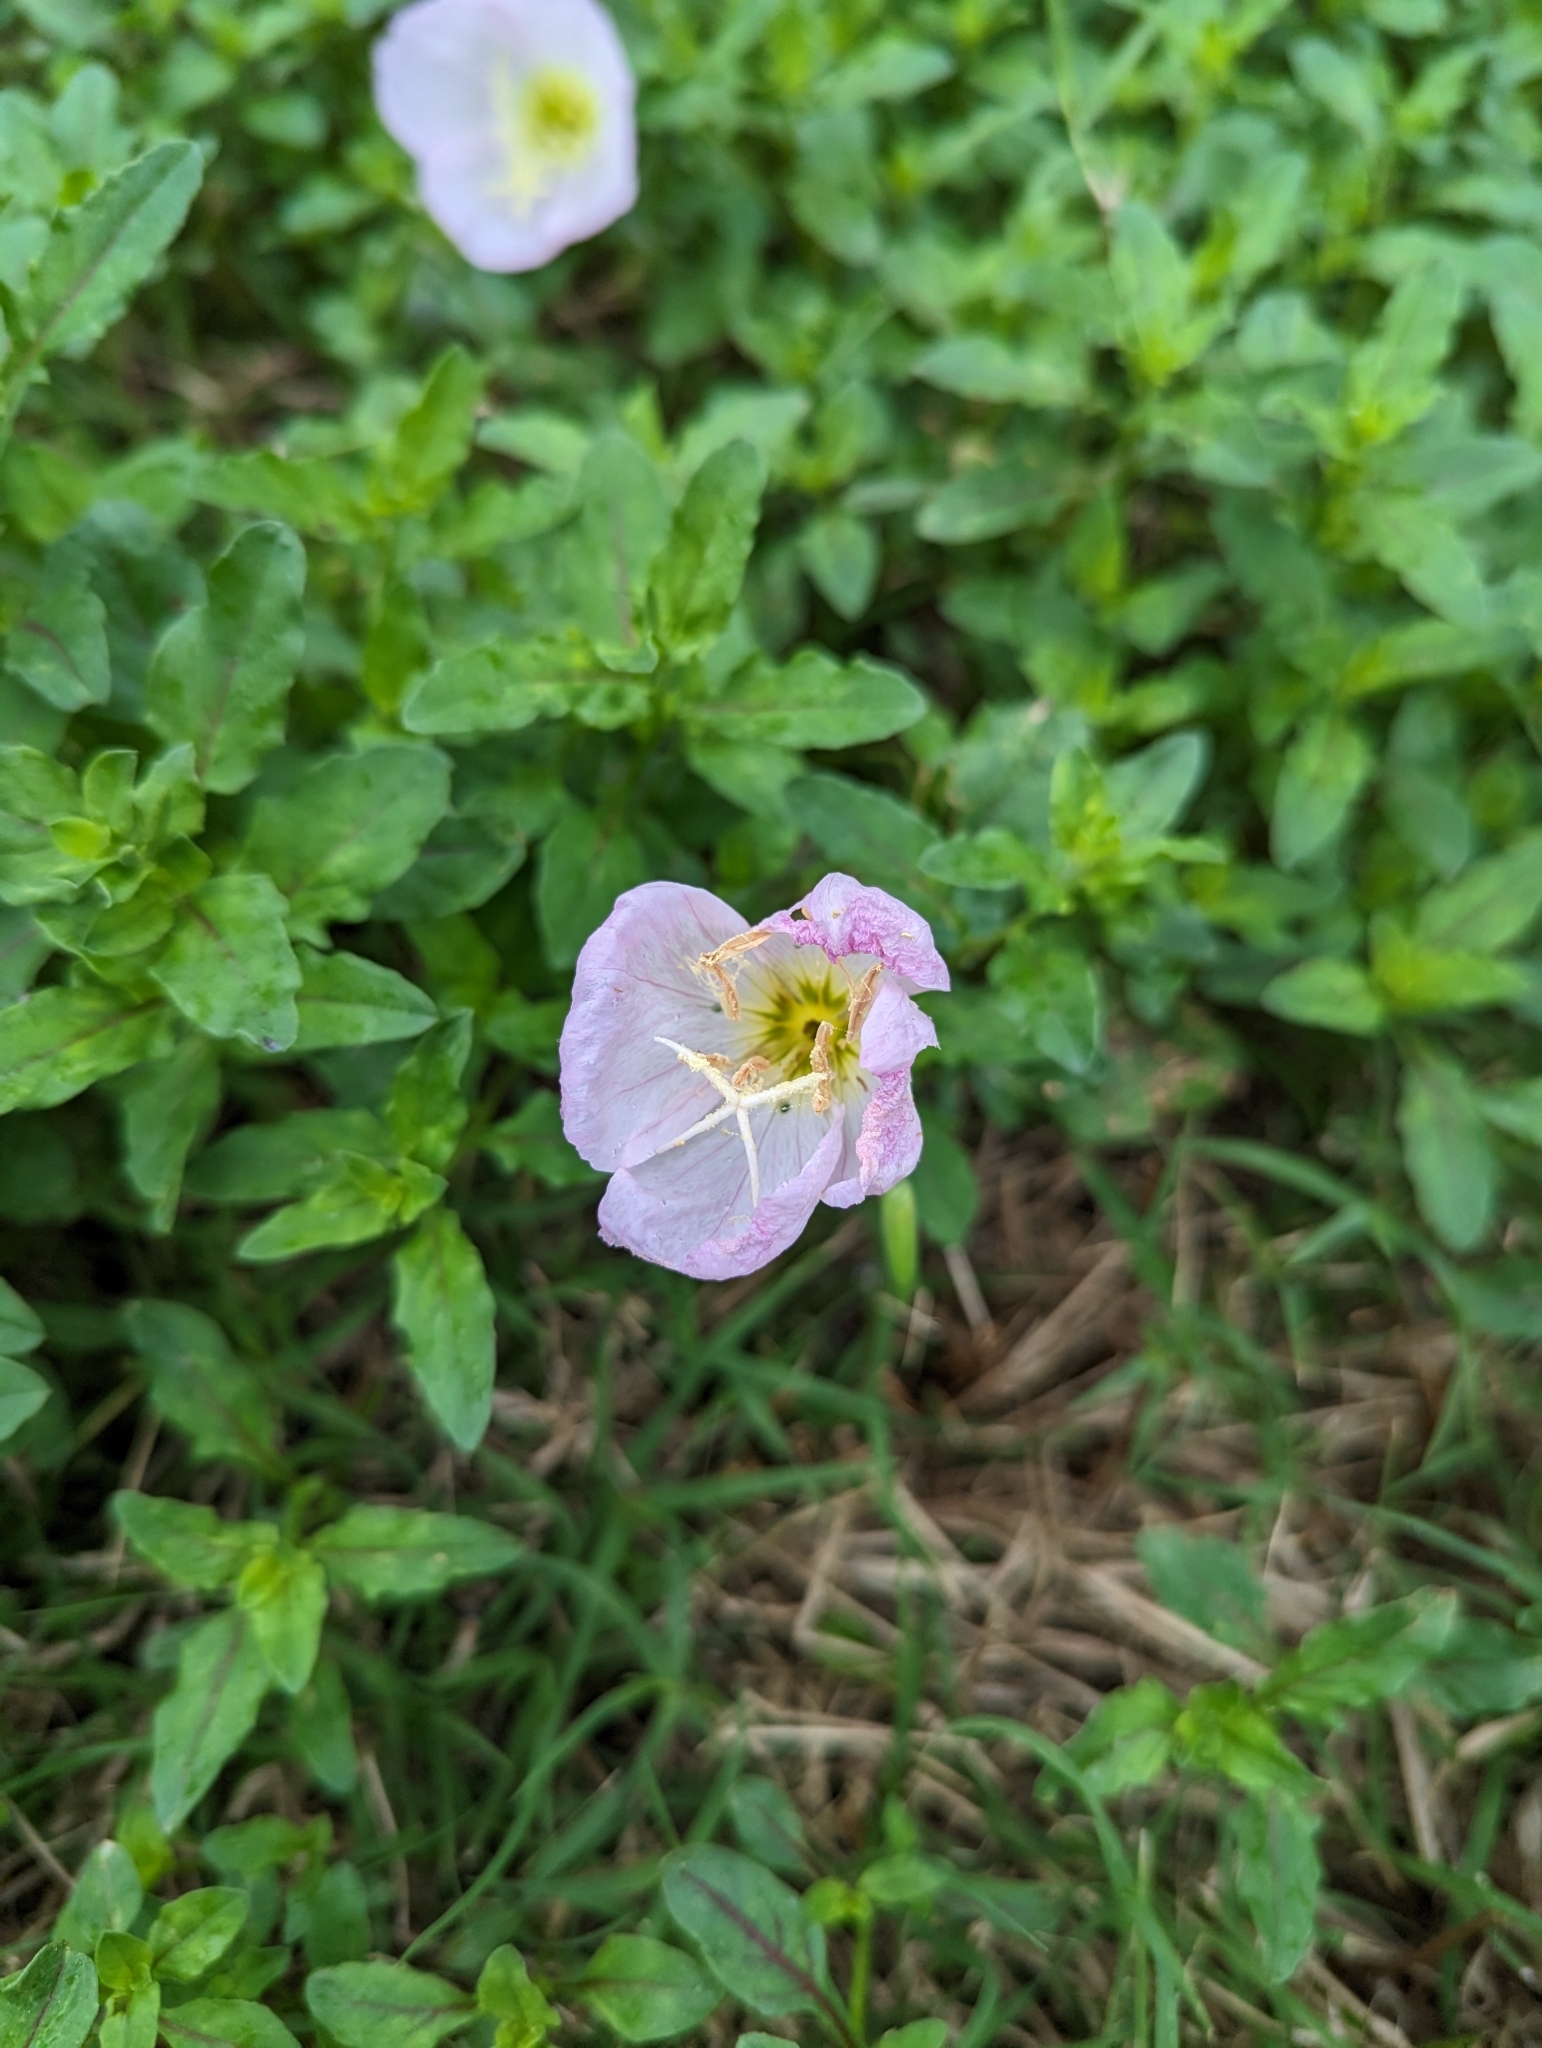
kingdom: Plantae
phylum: Tracheophyta
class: Magnoliopsida
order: Myrtales
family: Onagraceae
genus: Oenothera
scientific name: Oenothera speciosa
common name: White evening-primrose
